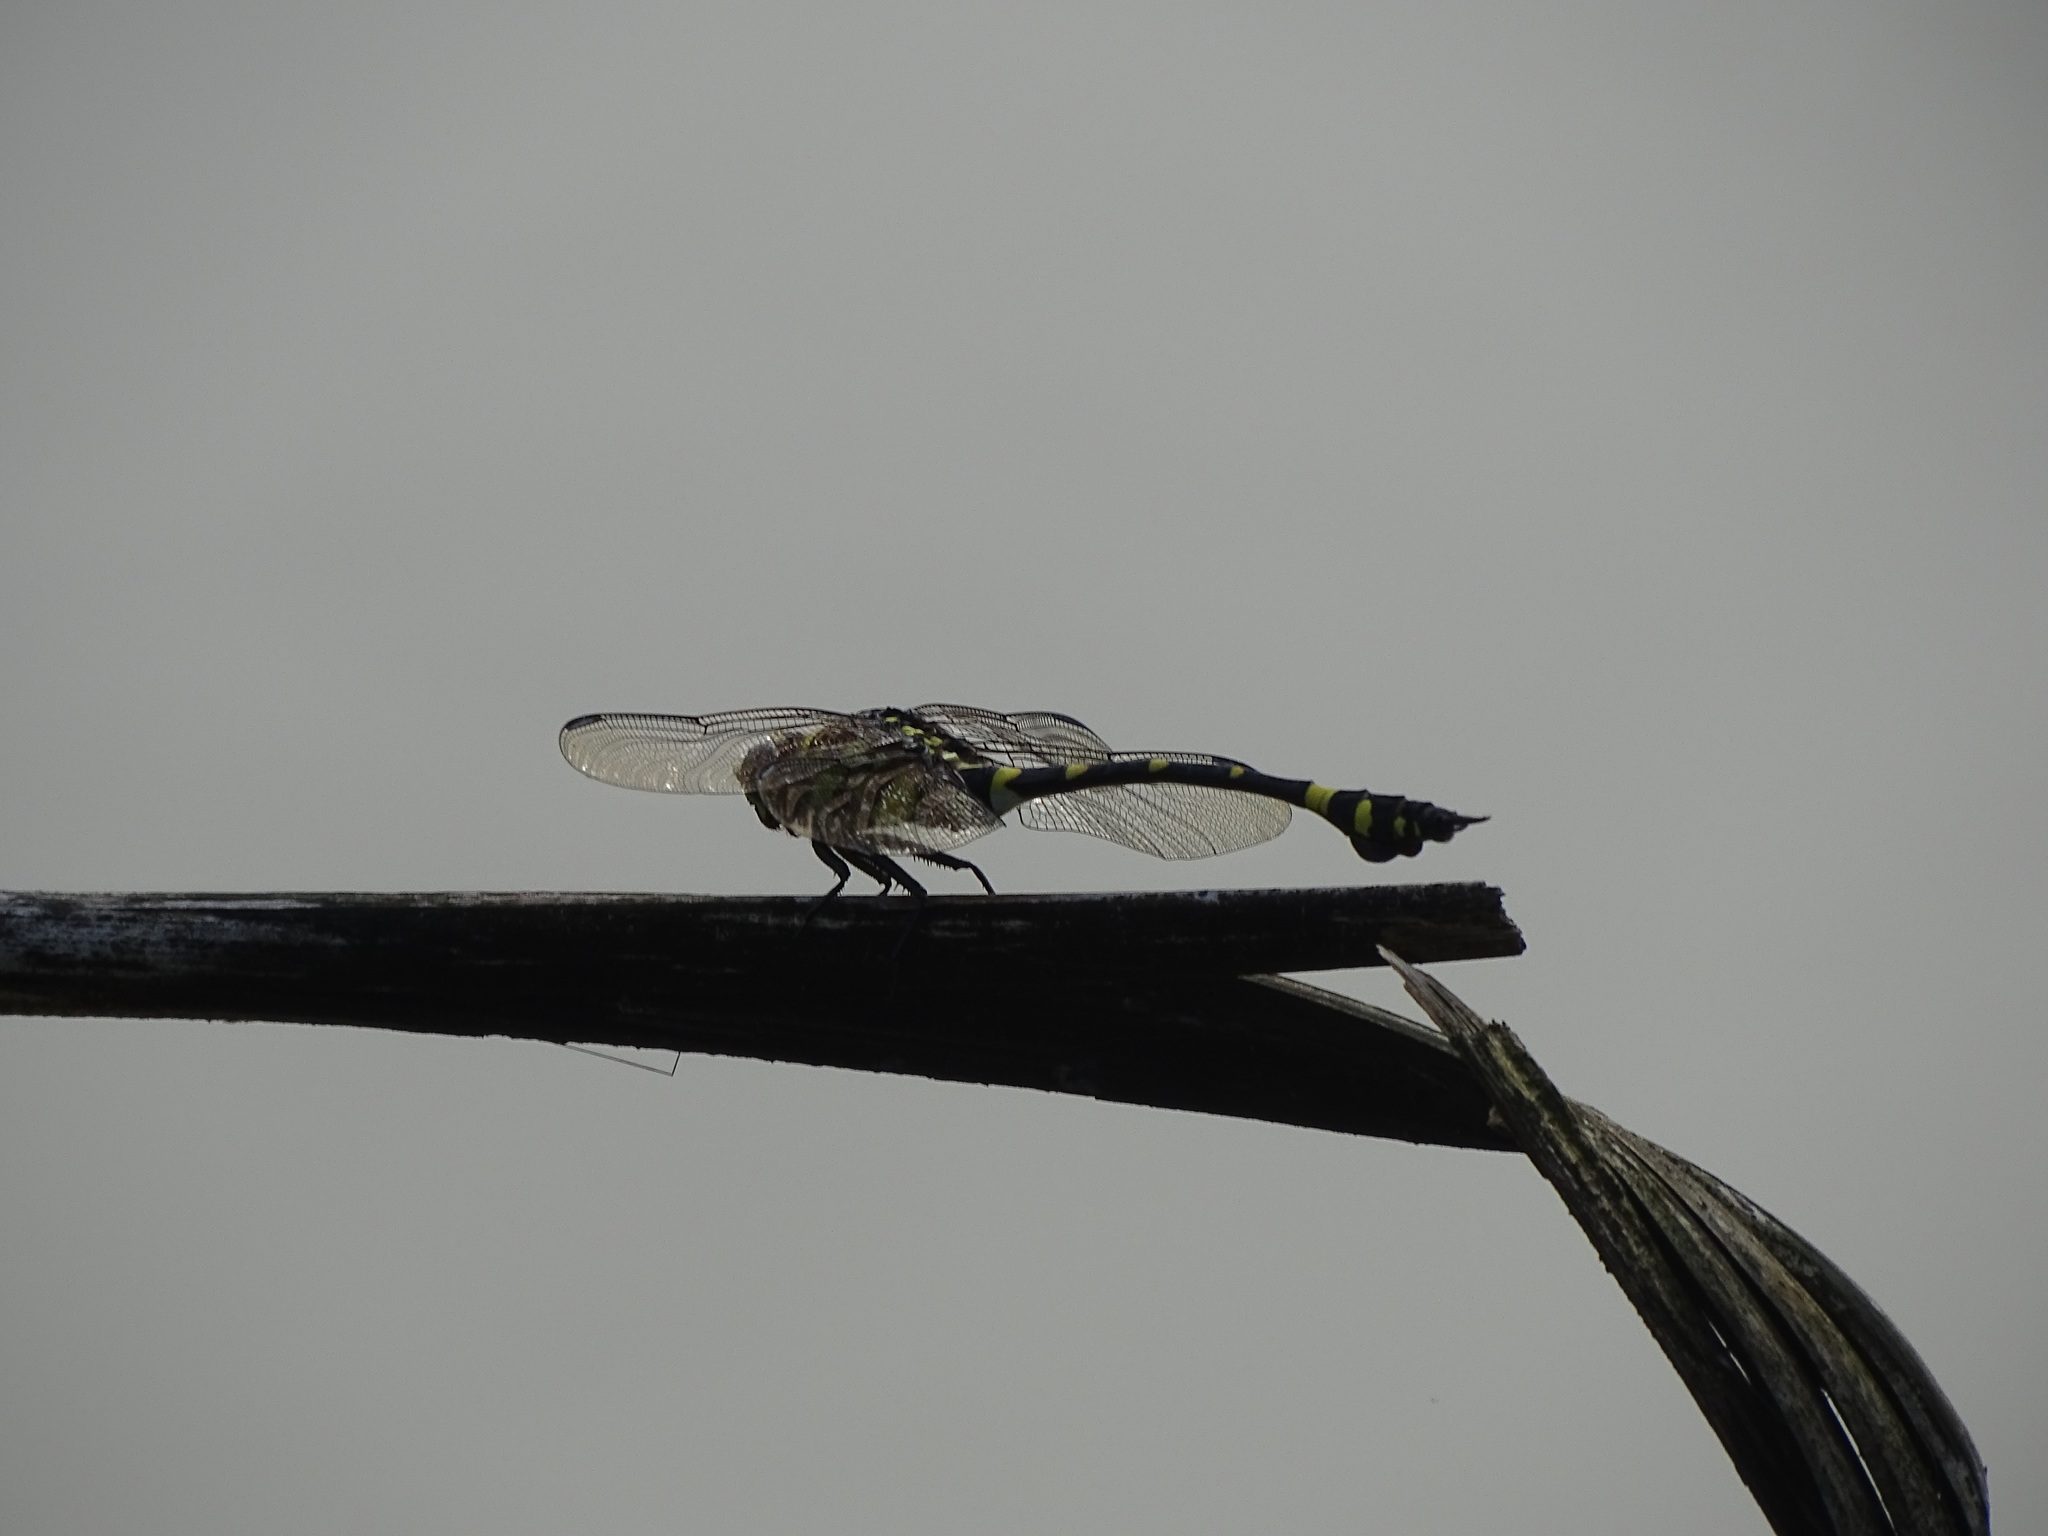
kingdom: Animalia
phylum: Arthropoda
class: Insecta
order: Odonata
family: Gomphidae
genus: Ictinogomphus
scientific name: Ictinogomphus rapax
